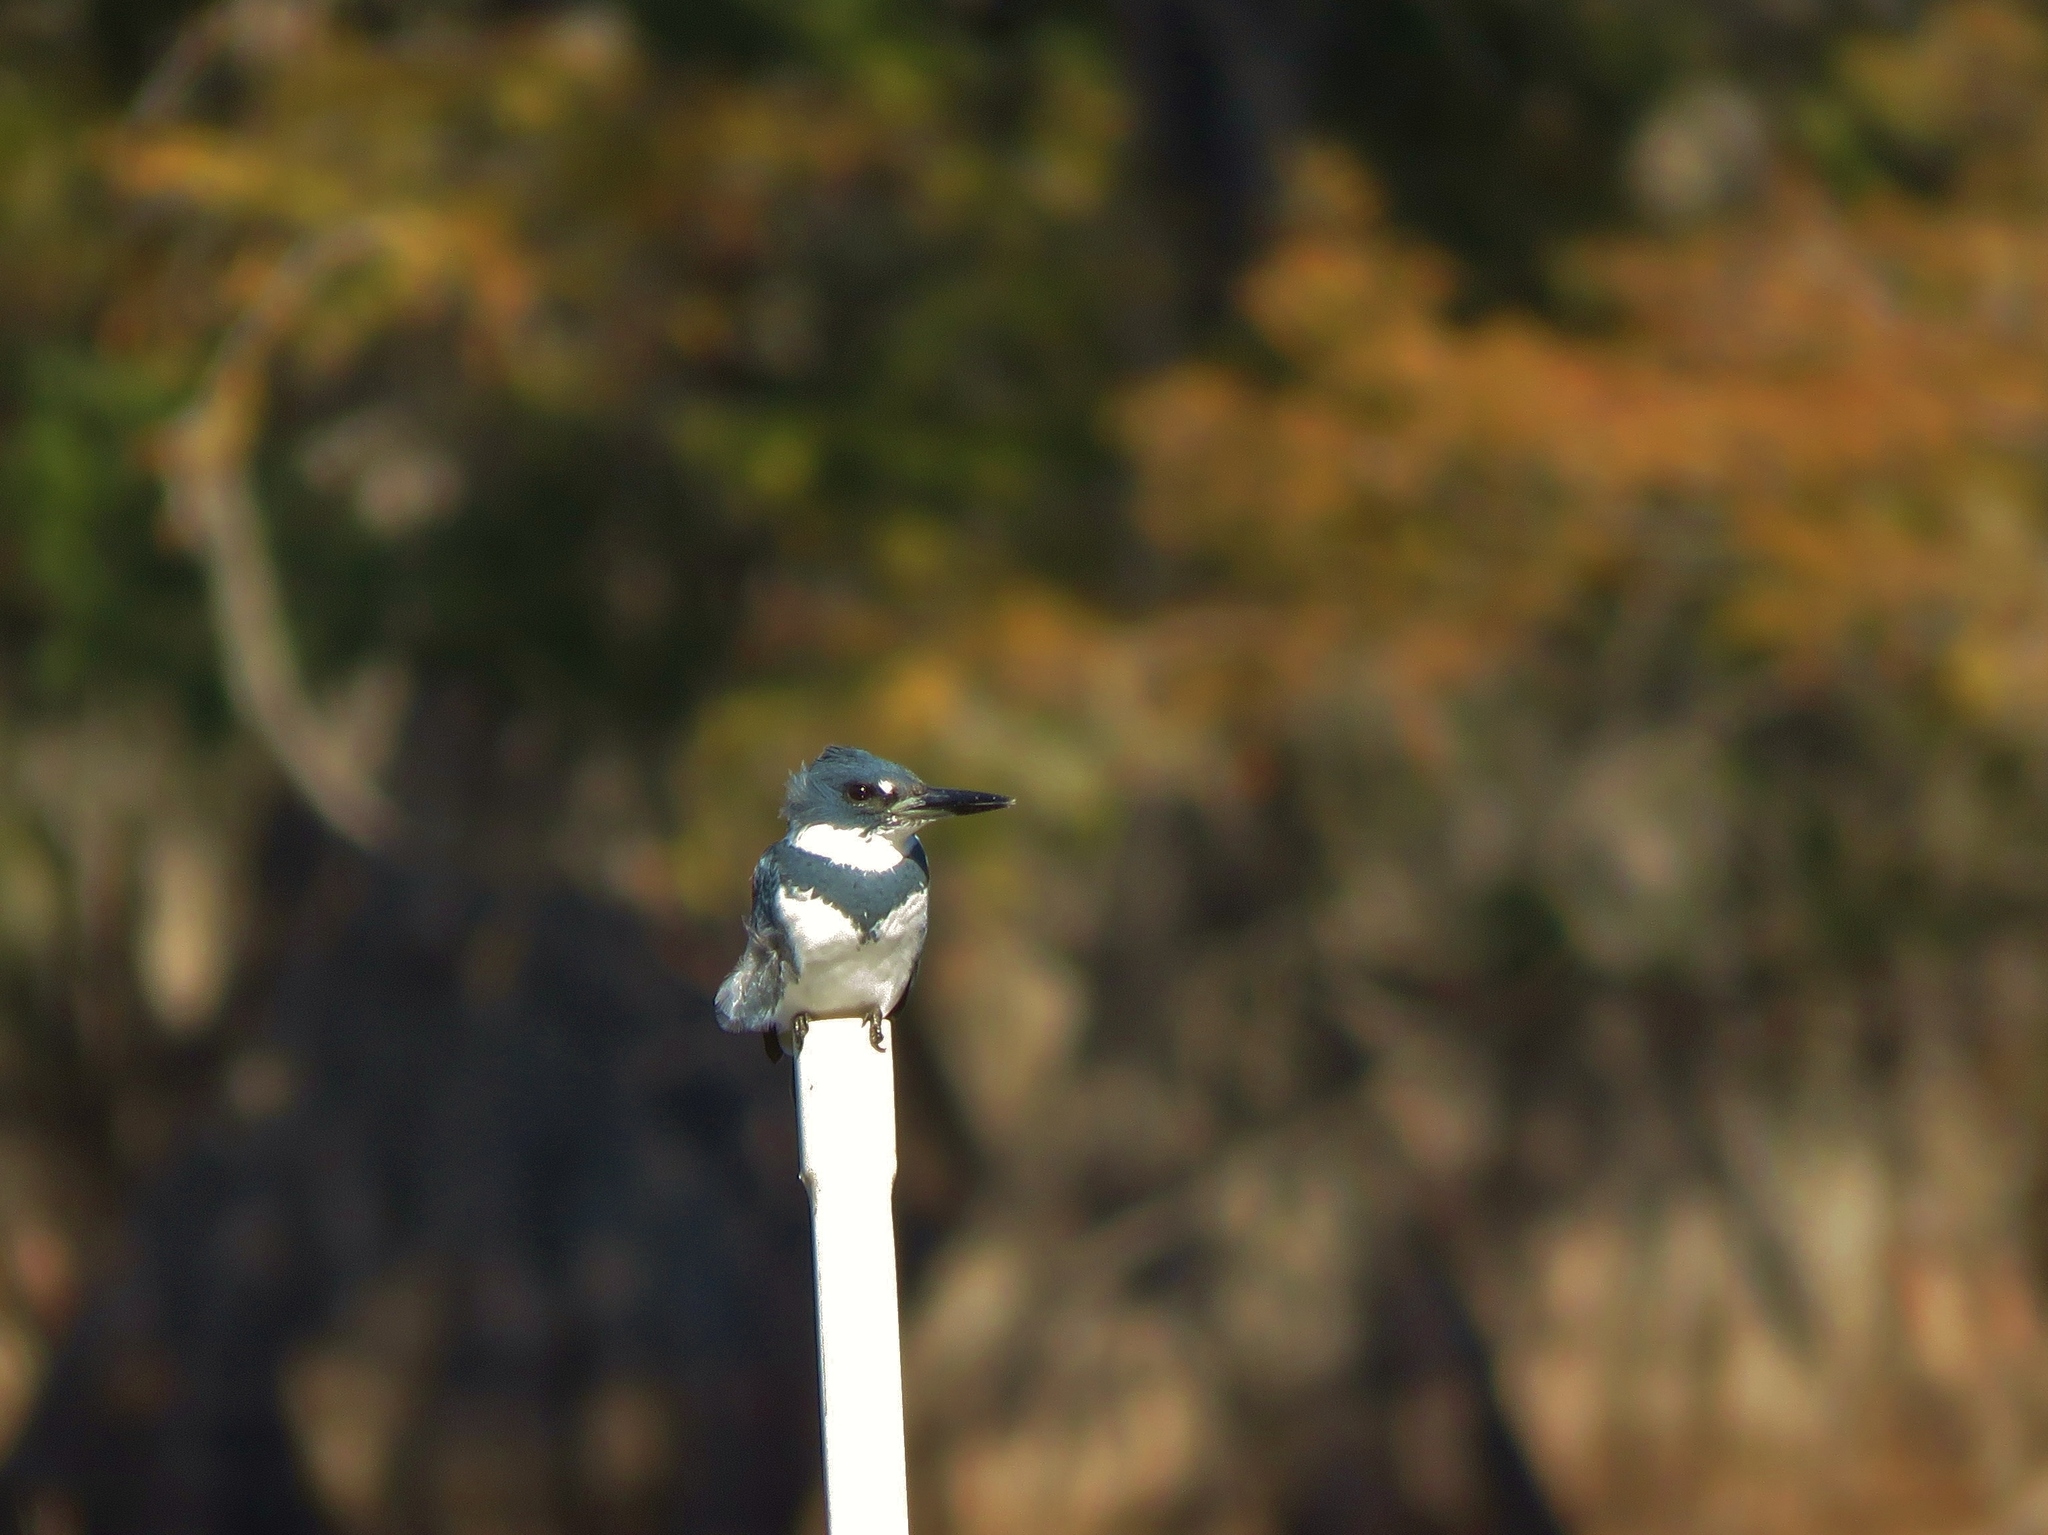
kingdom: Animalia
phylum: Chordata
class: Aves
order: Coraciiformes
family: Alcedinidae
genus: Megaceryle
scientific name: Megaceryle alcyon
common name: Belted kingfisher
